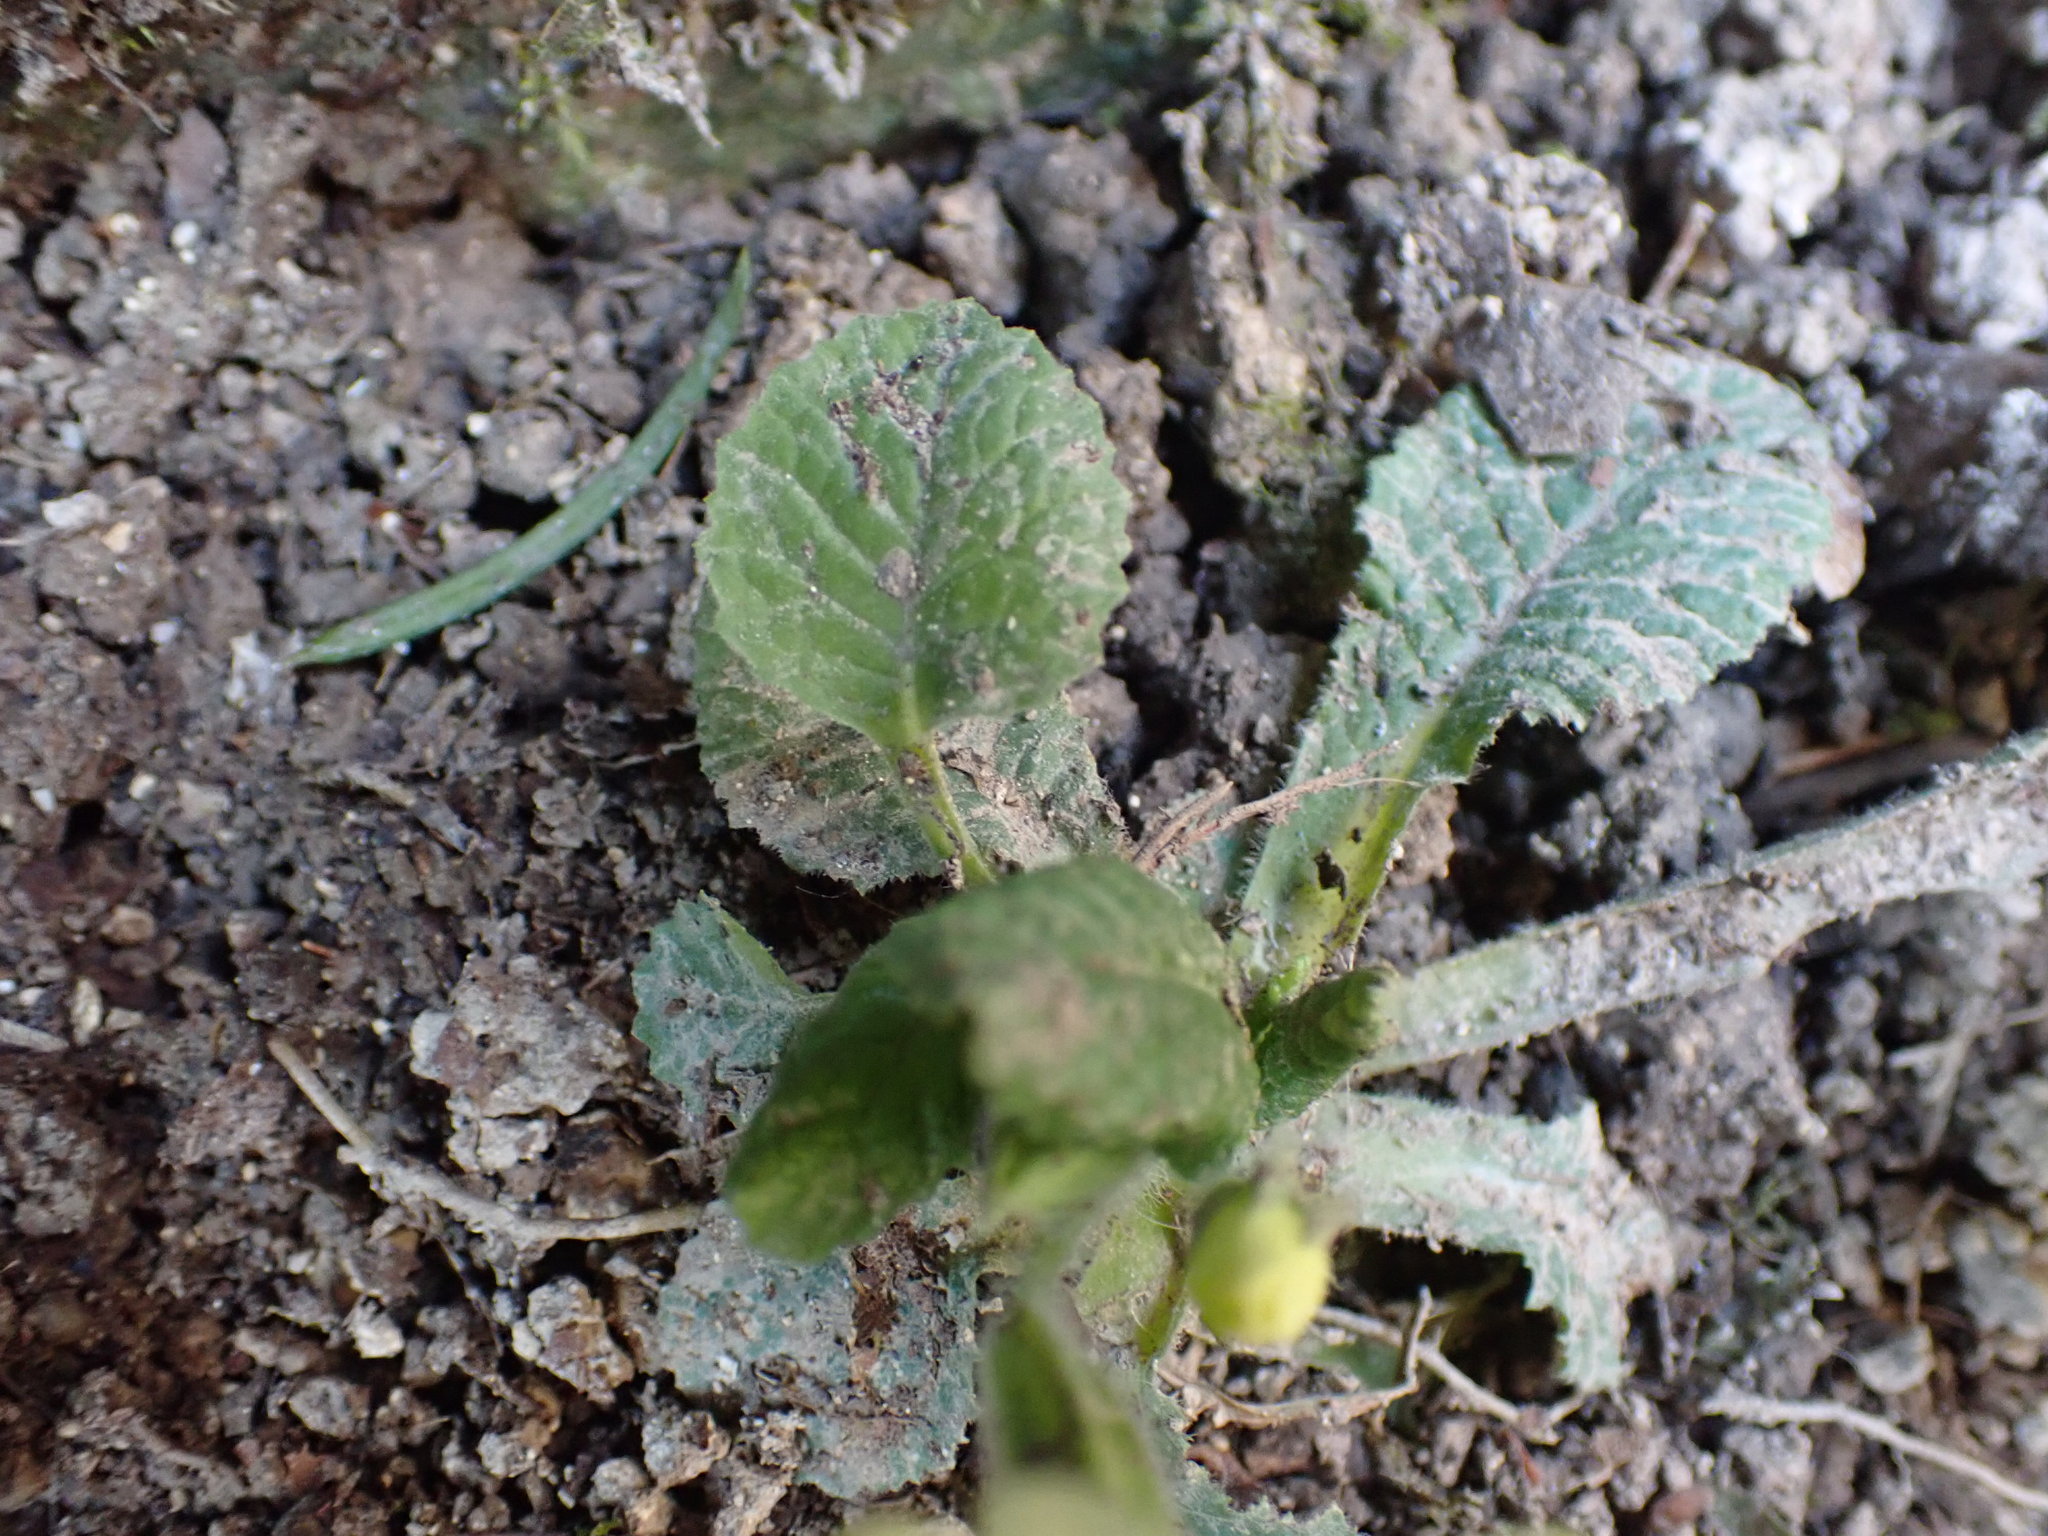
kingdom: Plantae
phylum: Tracheophyta
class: Magnoliopsida
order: Ericales
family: Primulaceae
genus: Primula
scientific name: Primula vulgaris
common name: Primrose
